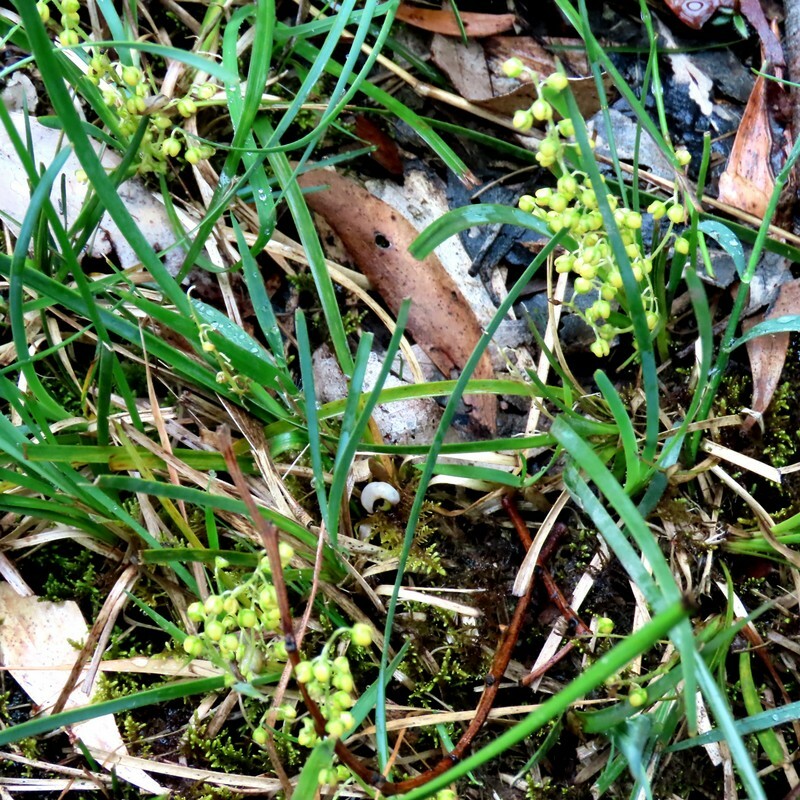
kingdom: Plantae
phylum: Tracheophyta
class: Liliopsida
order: Asparagales
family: Asparagaceae
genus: Lomandra
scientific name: Lomandra filiformis
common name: Wattle mat-rush
